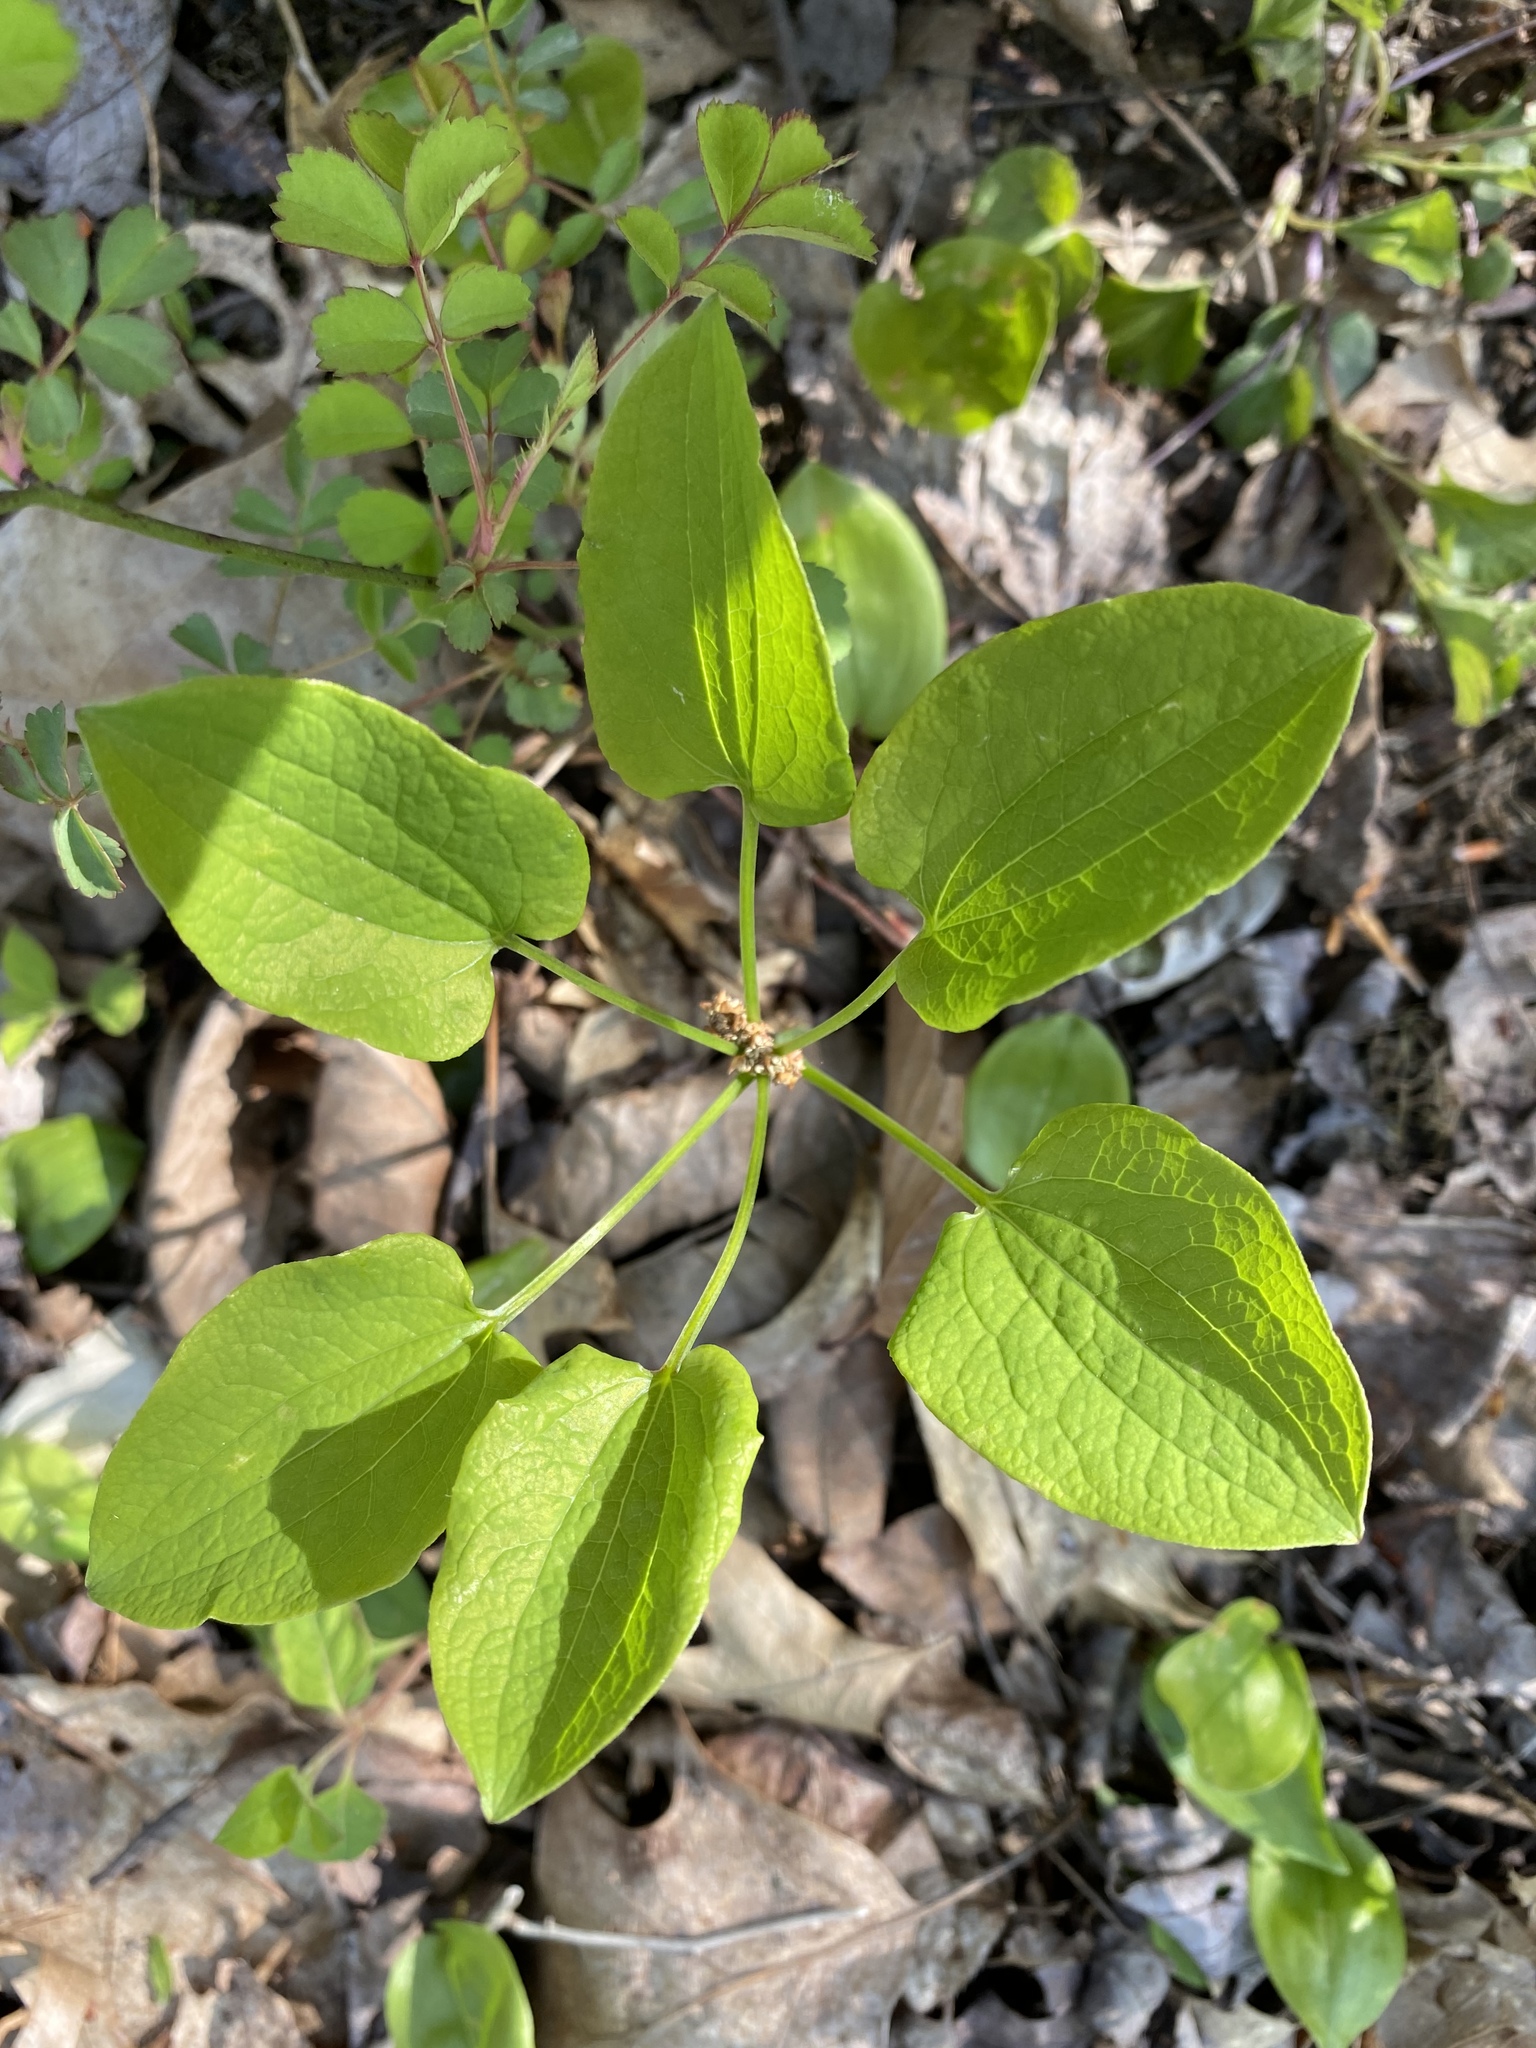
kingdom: Plantae
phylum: Tracheophyta
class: Liliopsida
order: Liliales
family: Smilacaceae
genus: Smilax
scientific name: Smilax herbacea
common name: Jacob's-ladder
